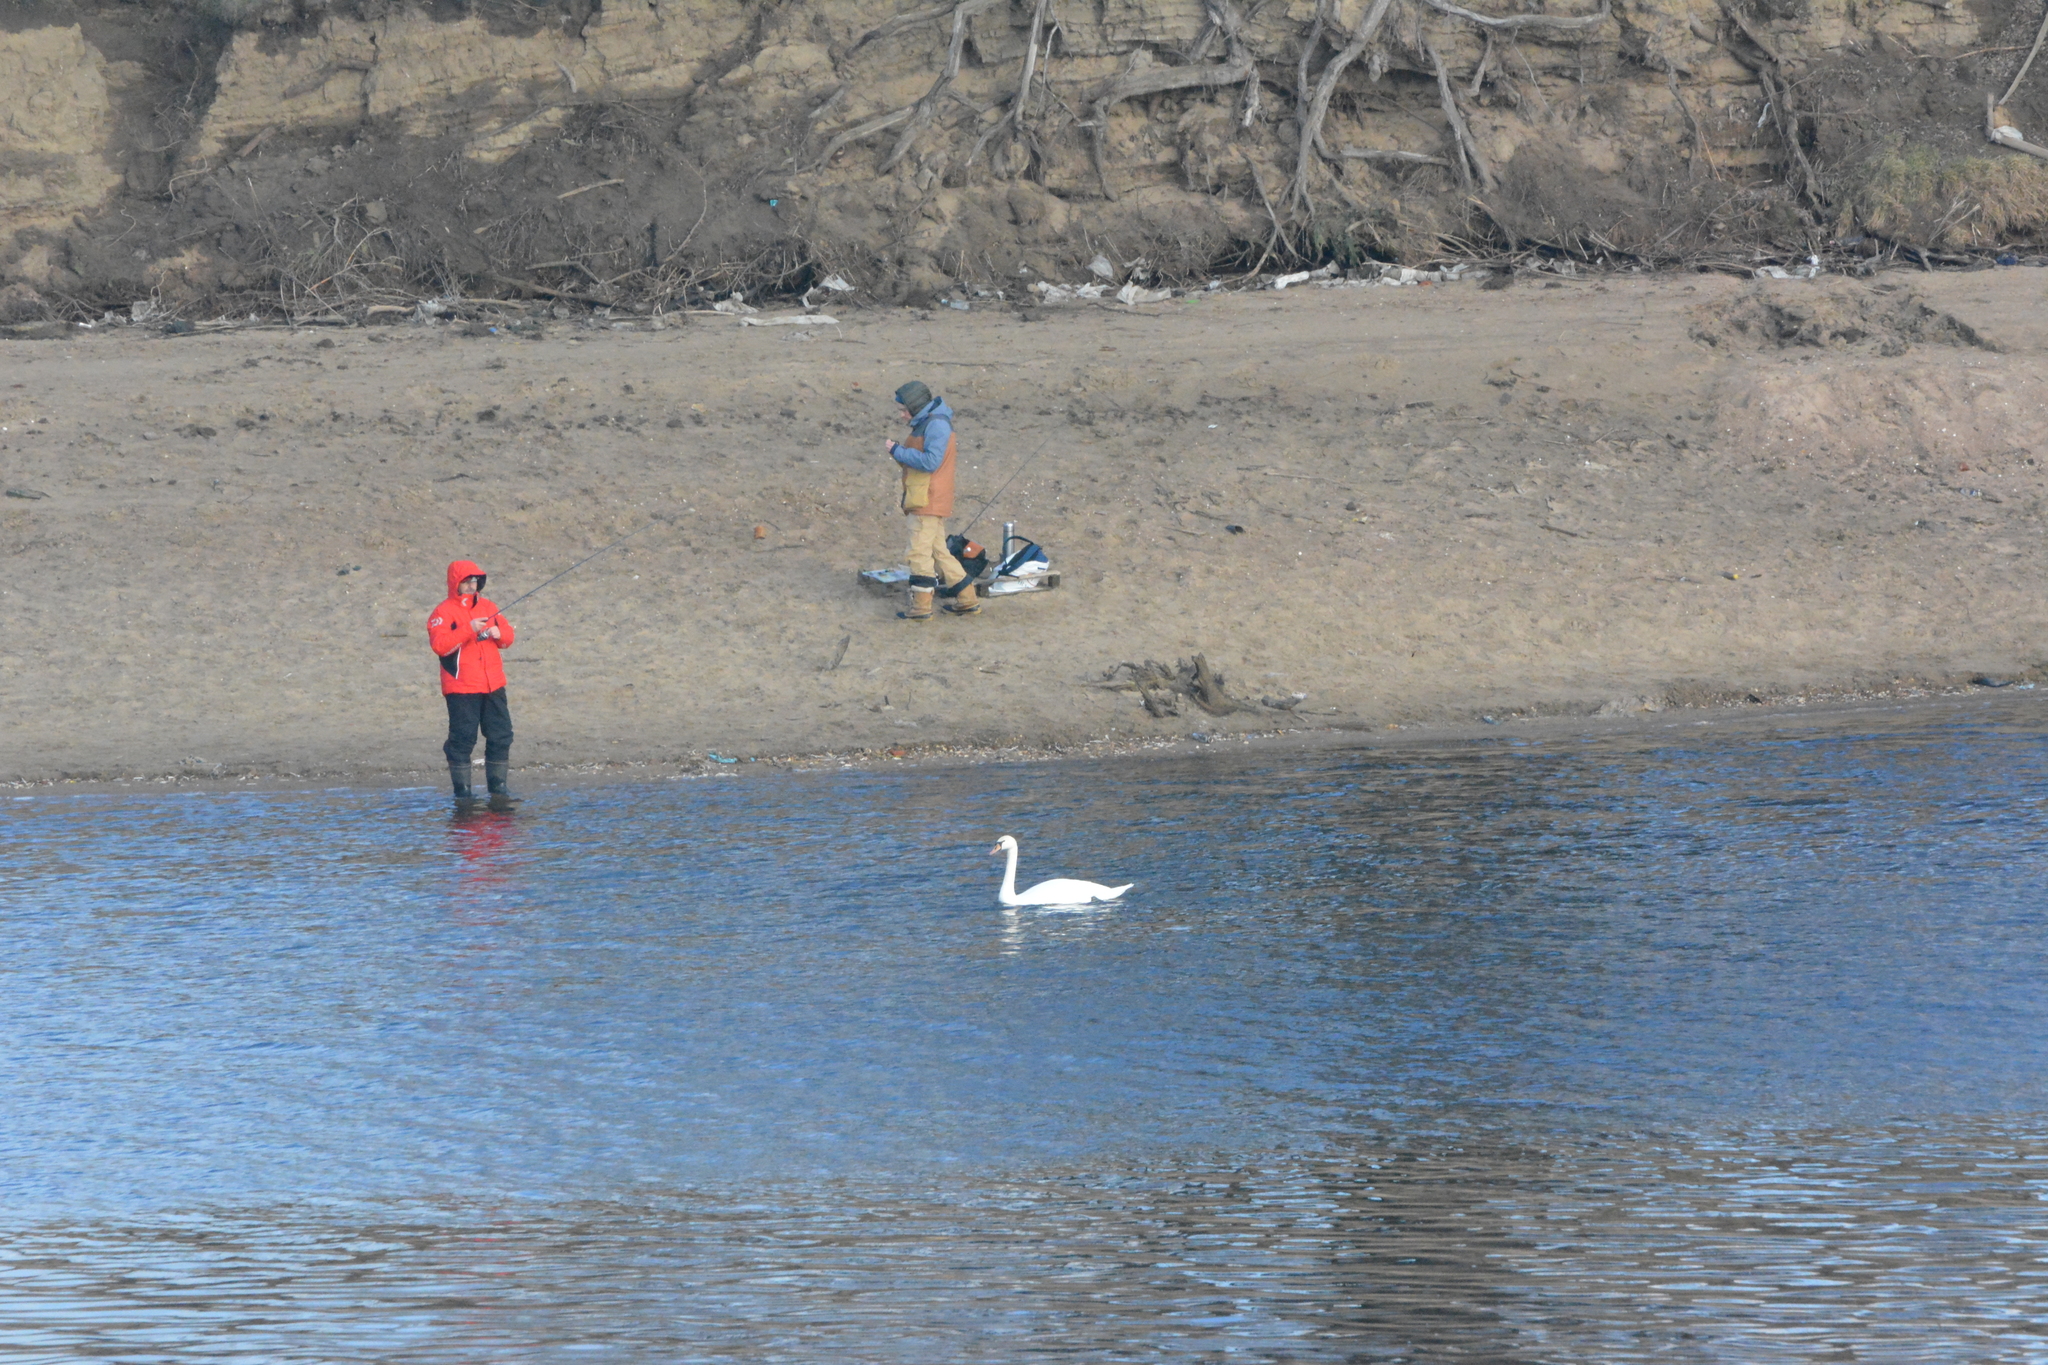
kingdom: Animalia
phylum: Chordata
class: Aves
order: Anseriformes
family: Anatidae
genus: Cygnus
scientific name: Cygnus olor
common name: Mute swan
